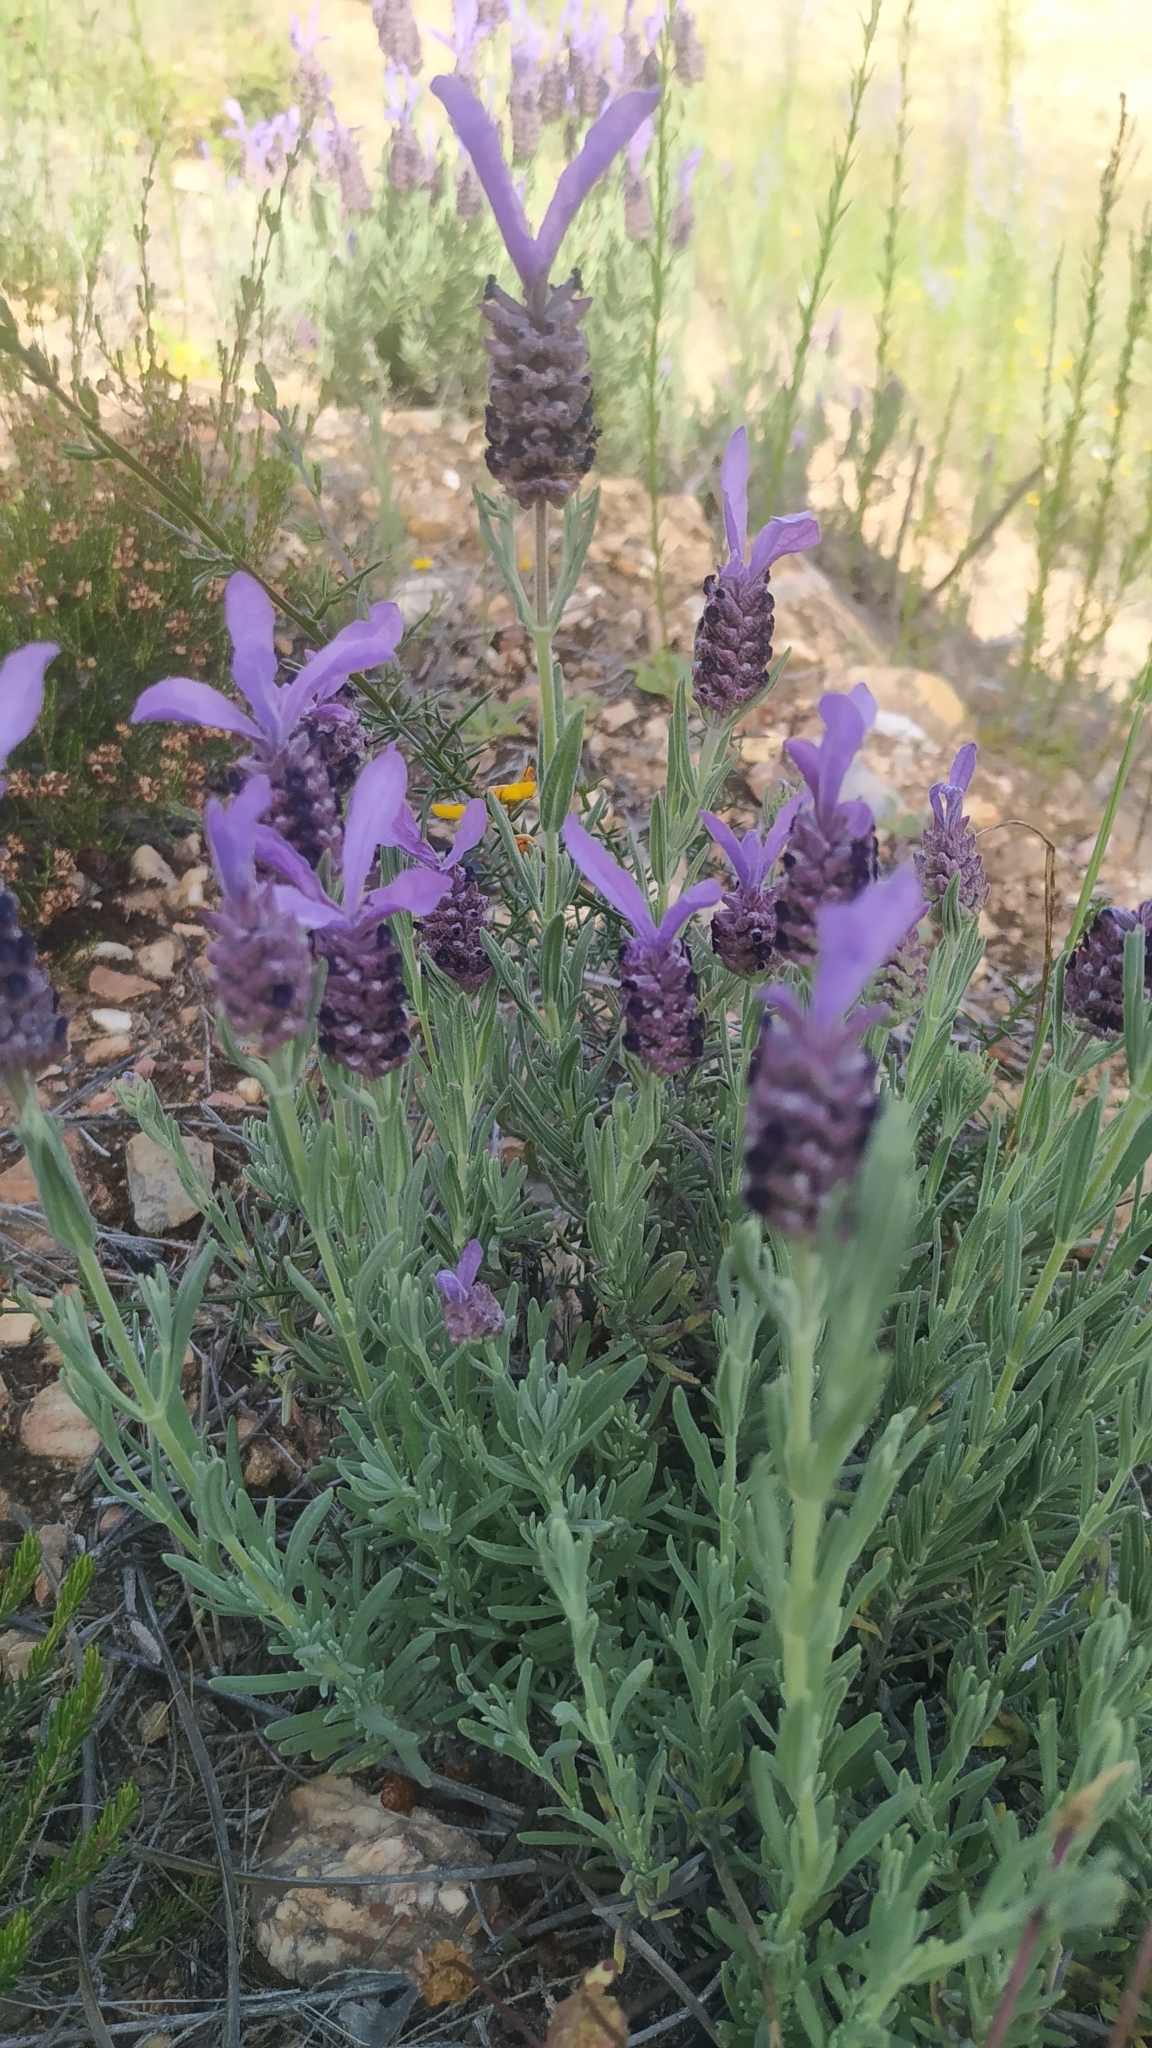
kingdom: Plantae
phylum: Tracheophyta
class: Magnoliopsida
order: Lamiales
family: Lamiaceae
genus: Lavandula
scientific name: Lavandula stoechas
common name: French lavender
